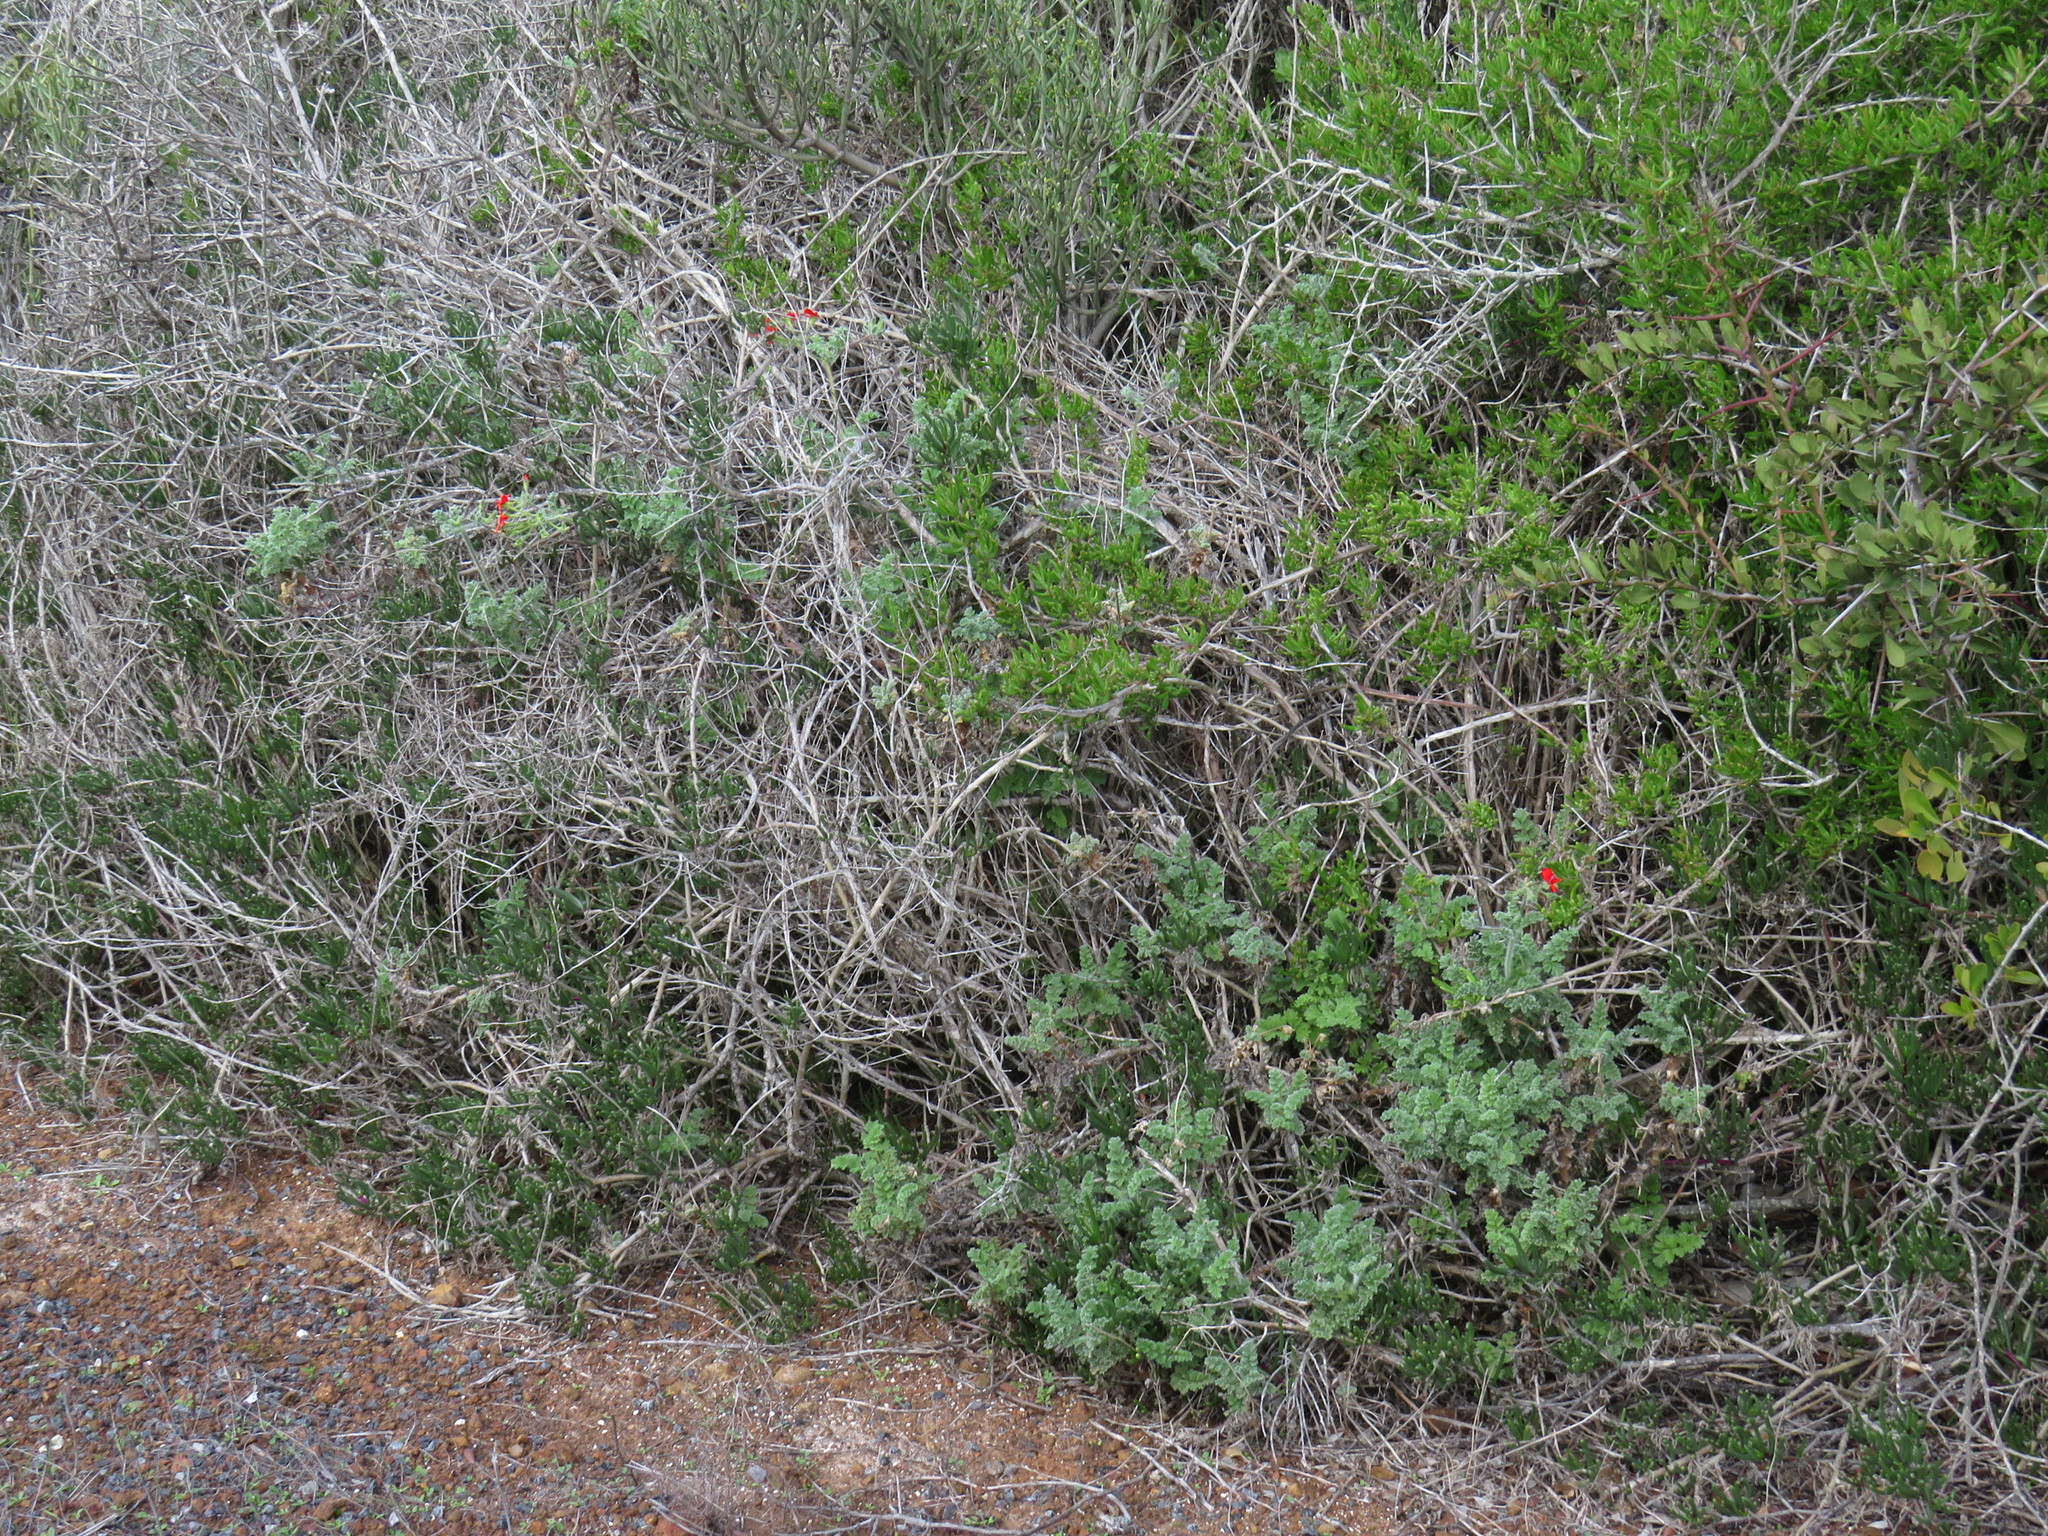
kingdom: Plantae
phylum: Tracheophyta
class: Magnoliopsida
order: Geraniales
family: Geraniaceae
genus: Pelargonium
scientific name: Pelargonium fulgidum
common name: Celandine-leaf pelargonium
